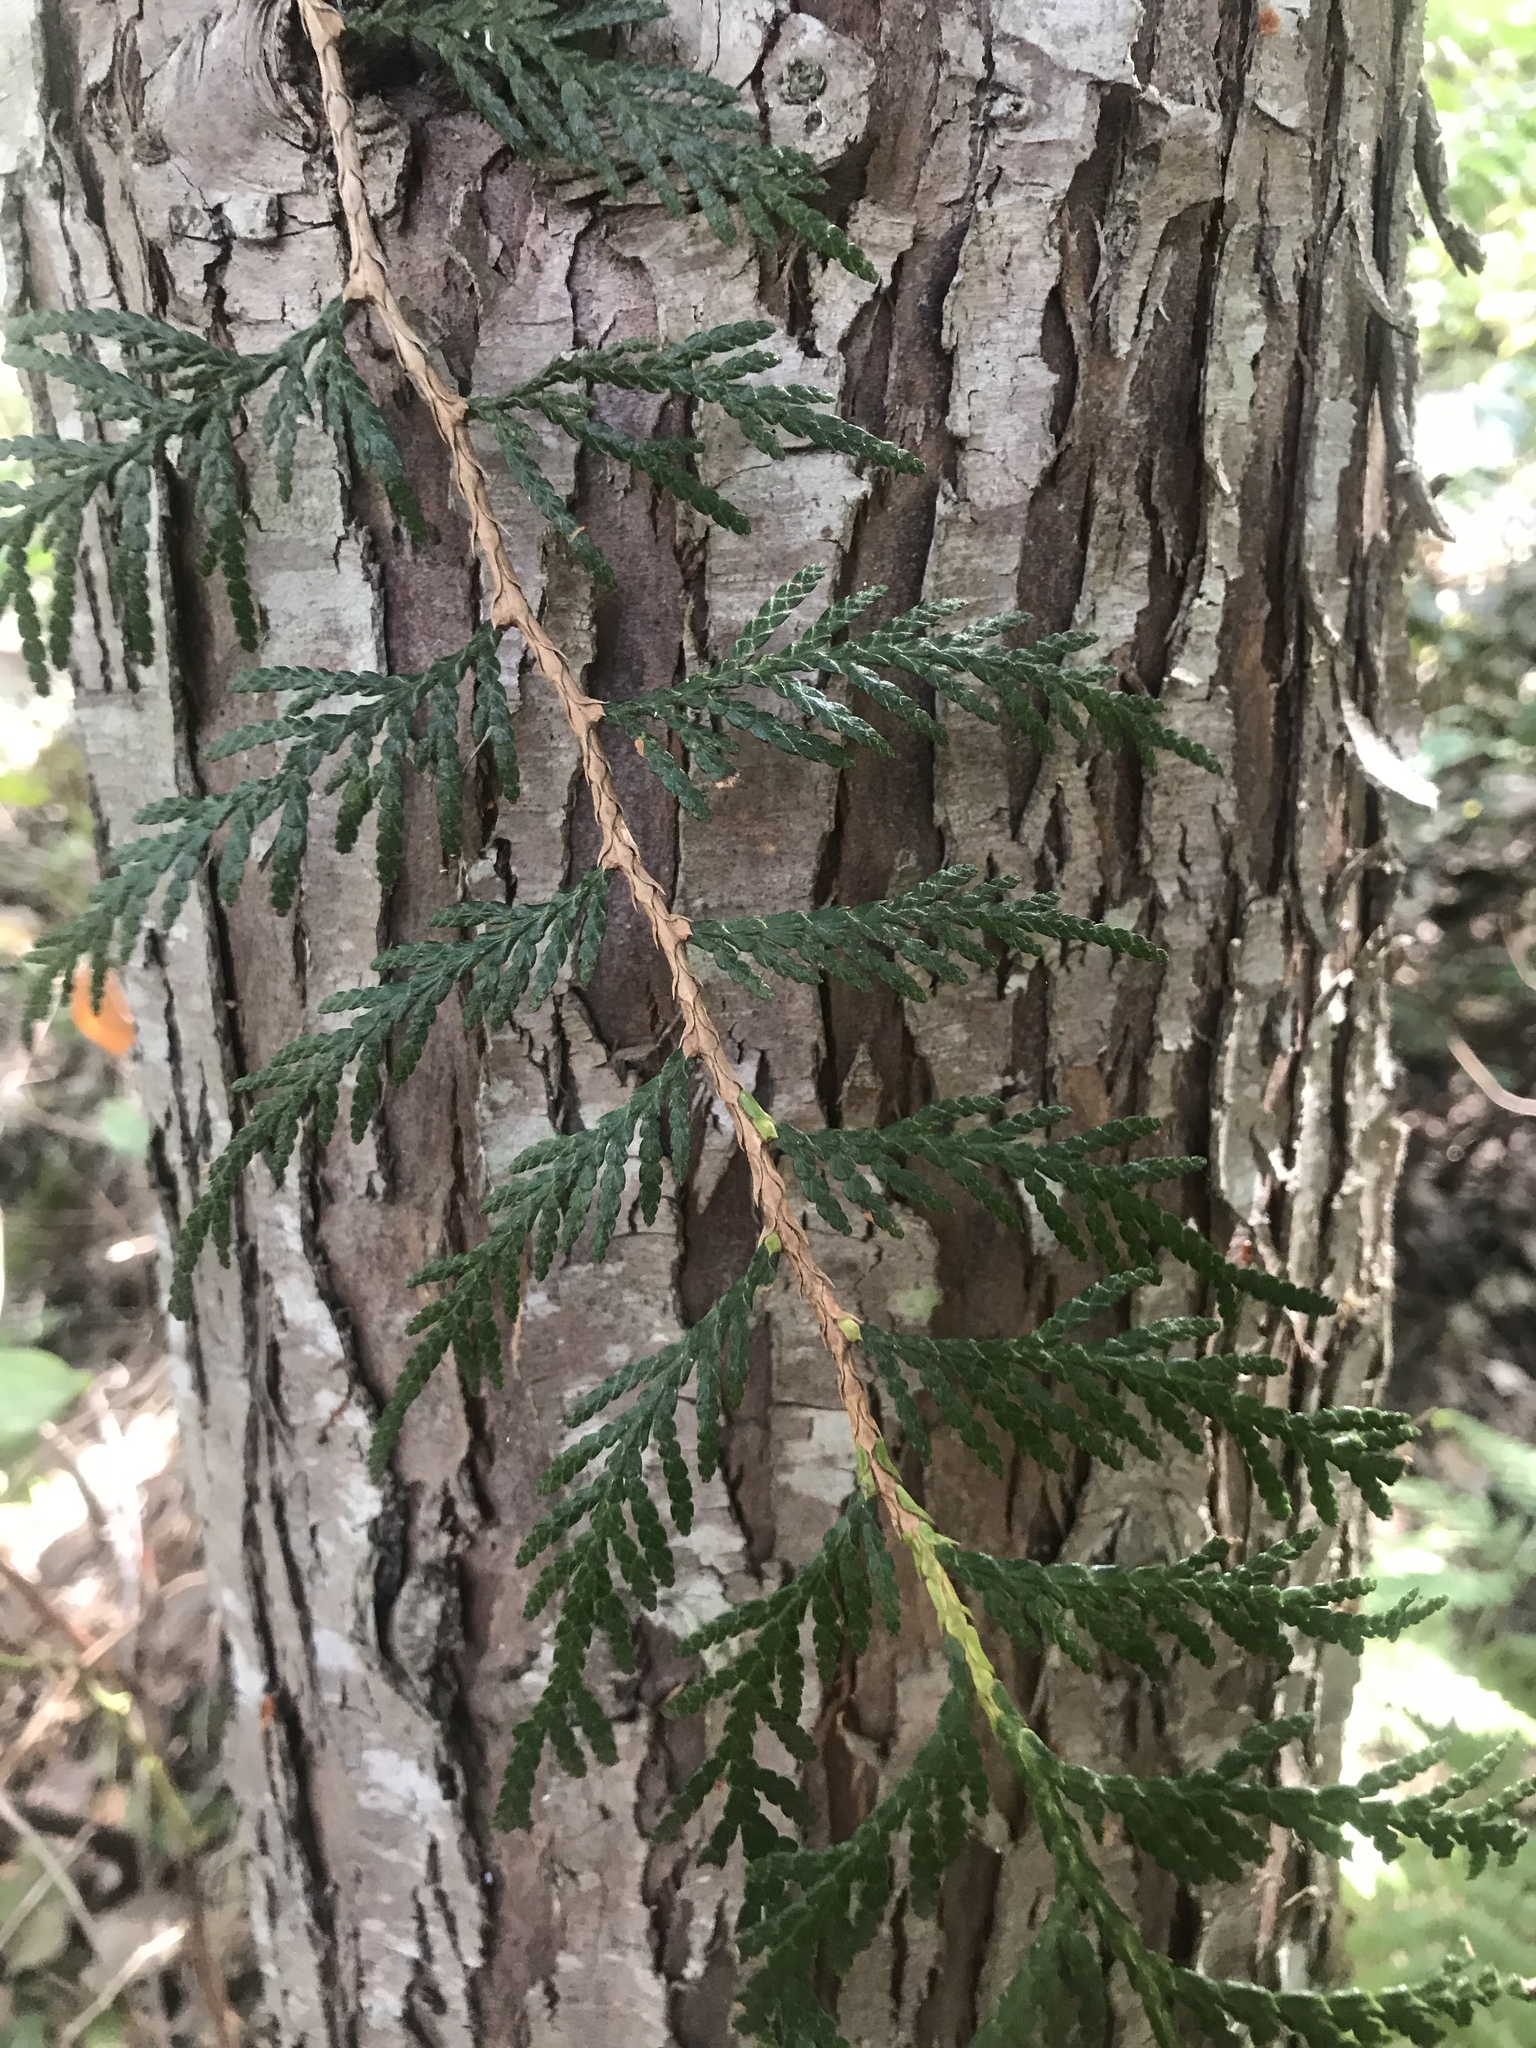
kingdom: Plantae
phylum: Tracheophyta
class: Pinopsida
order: Pinales
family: Cupressaceae
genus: Thuja
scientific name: Thuja plicata
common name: Western red-cedar
